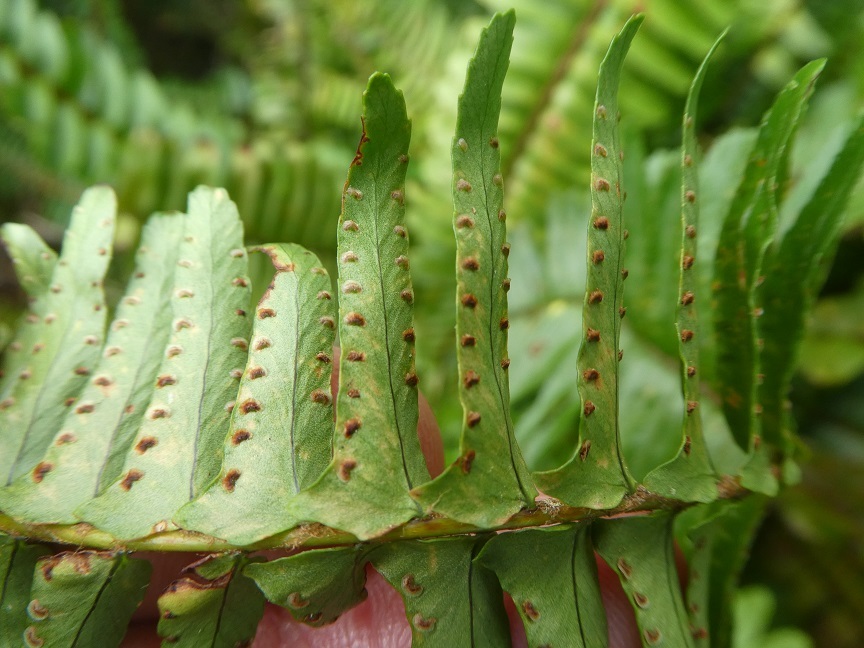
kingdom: Plantae
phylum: Tracheophyta
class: Polypodiopsida
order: Polypodiales
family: Nephrolepidaceae
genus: Nephrolepis
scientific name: Nephrolepis cordifolia
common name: Narrow swordfern
